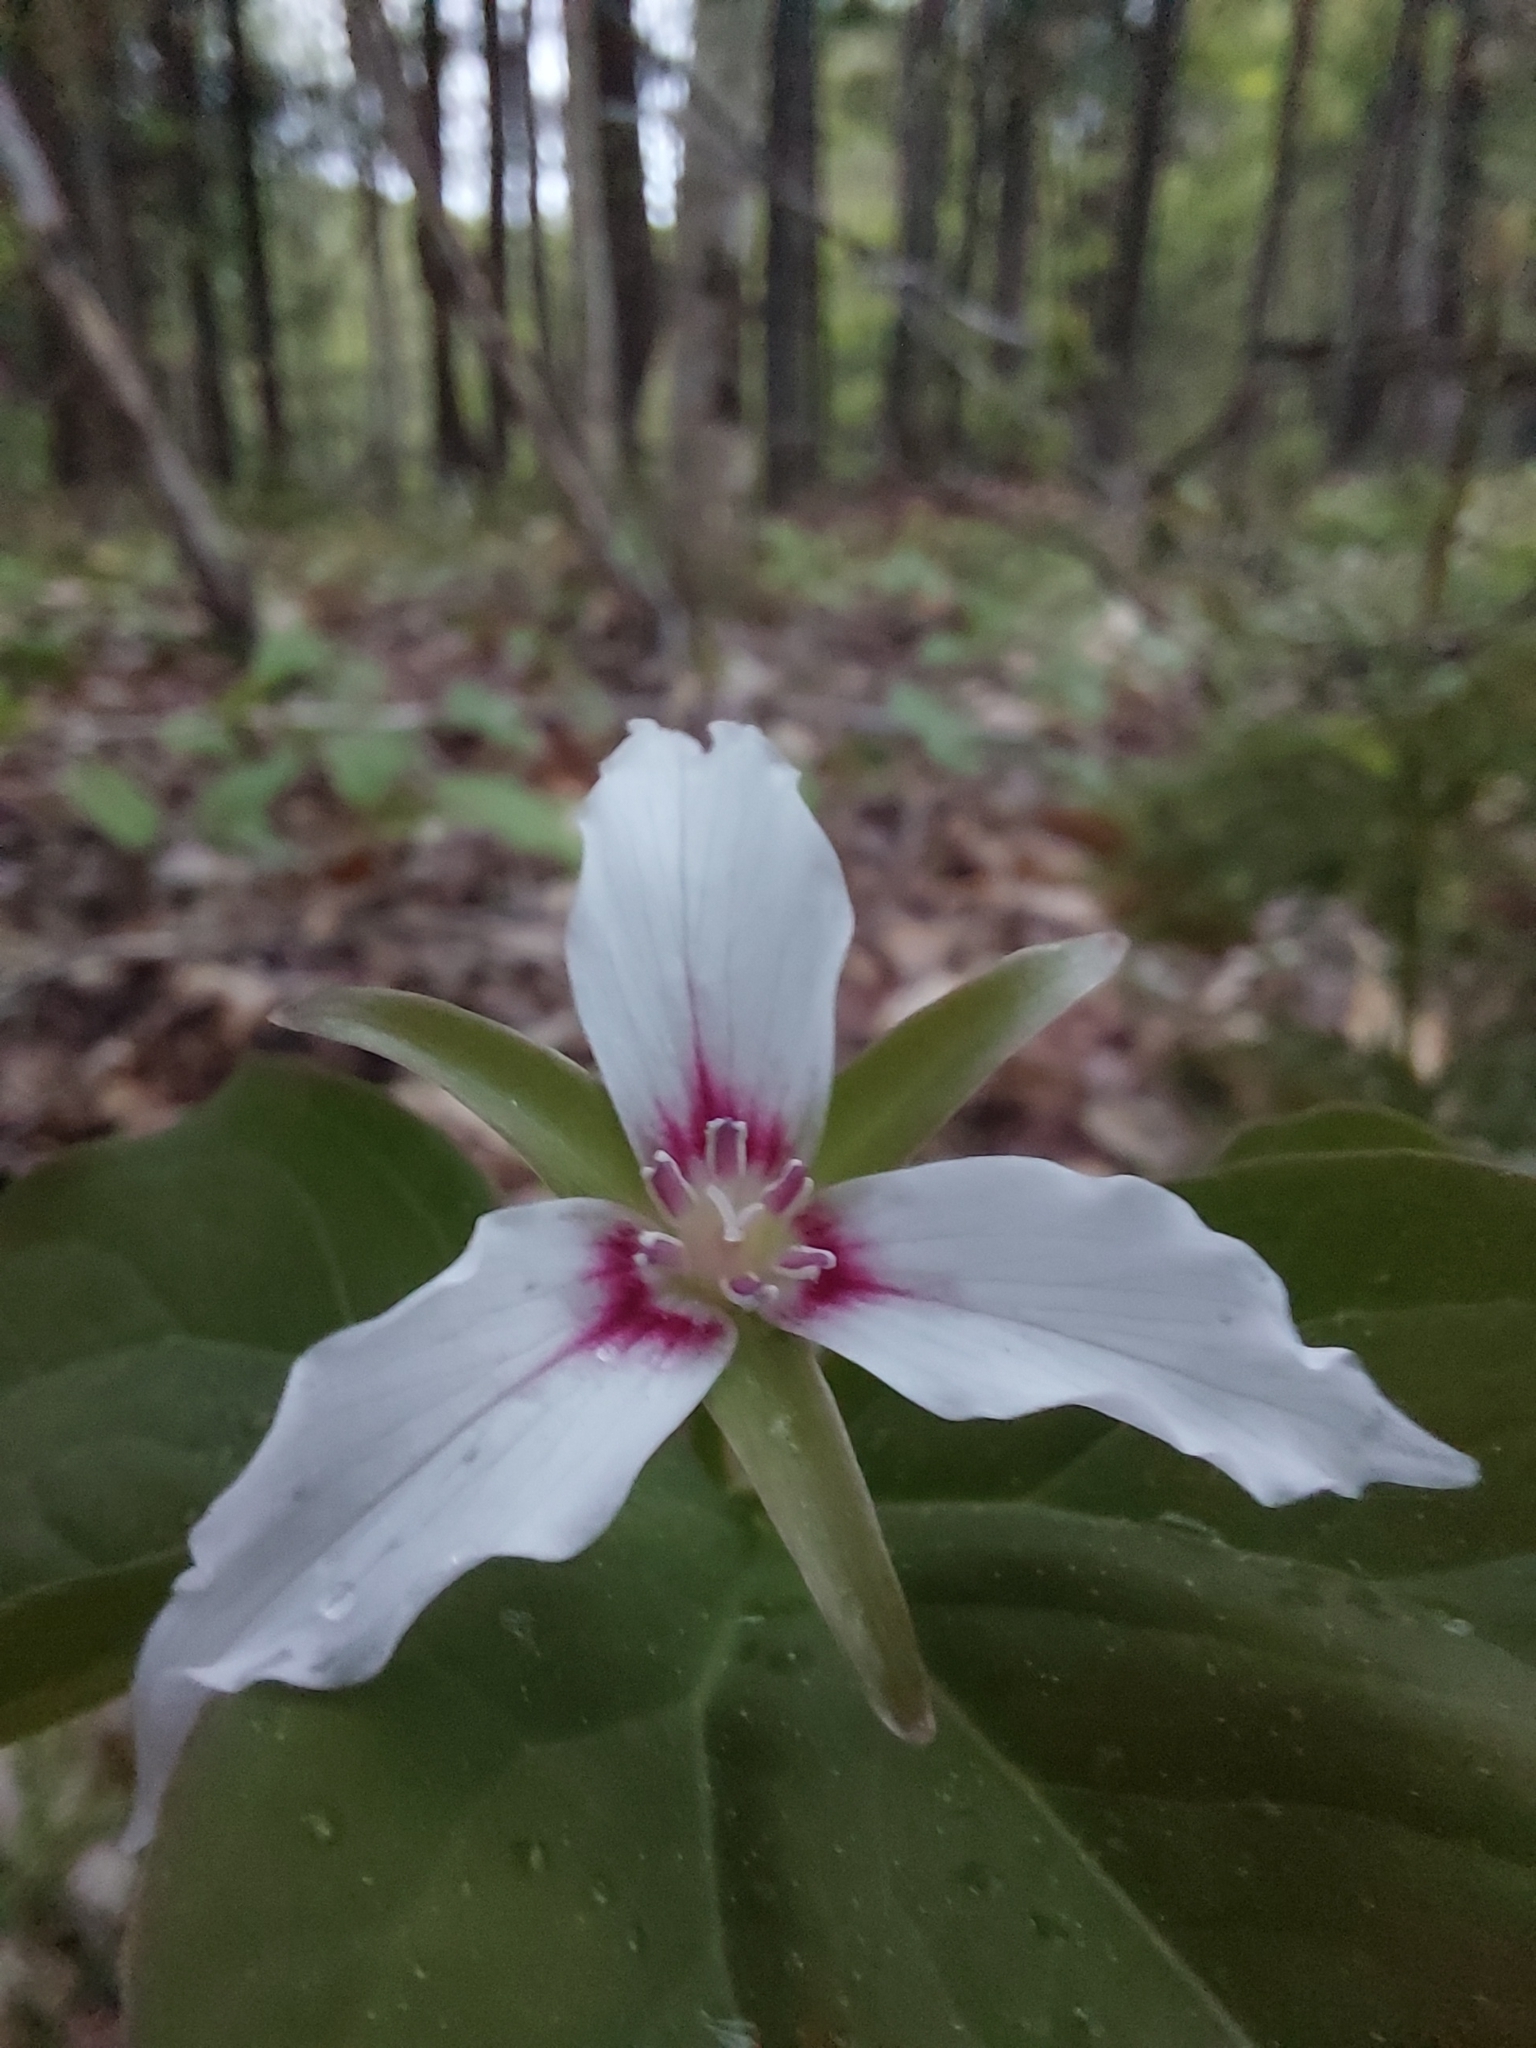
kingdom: Plantae
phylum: Tracheophyta
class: Liliopsida
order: Liliales
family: Melanthiaceae
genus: Trillium
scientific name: Trillium undulatum
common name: Paint trillium
